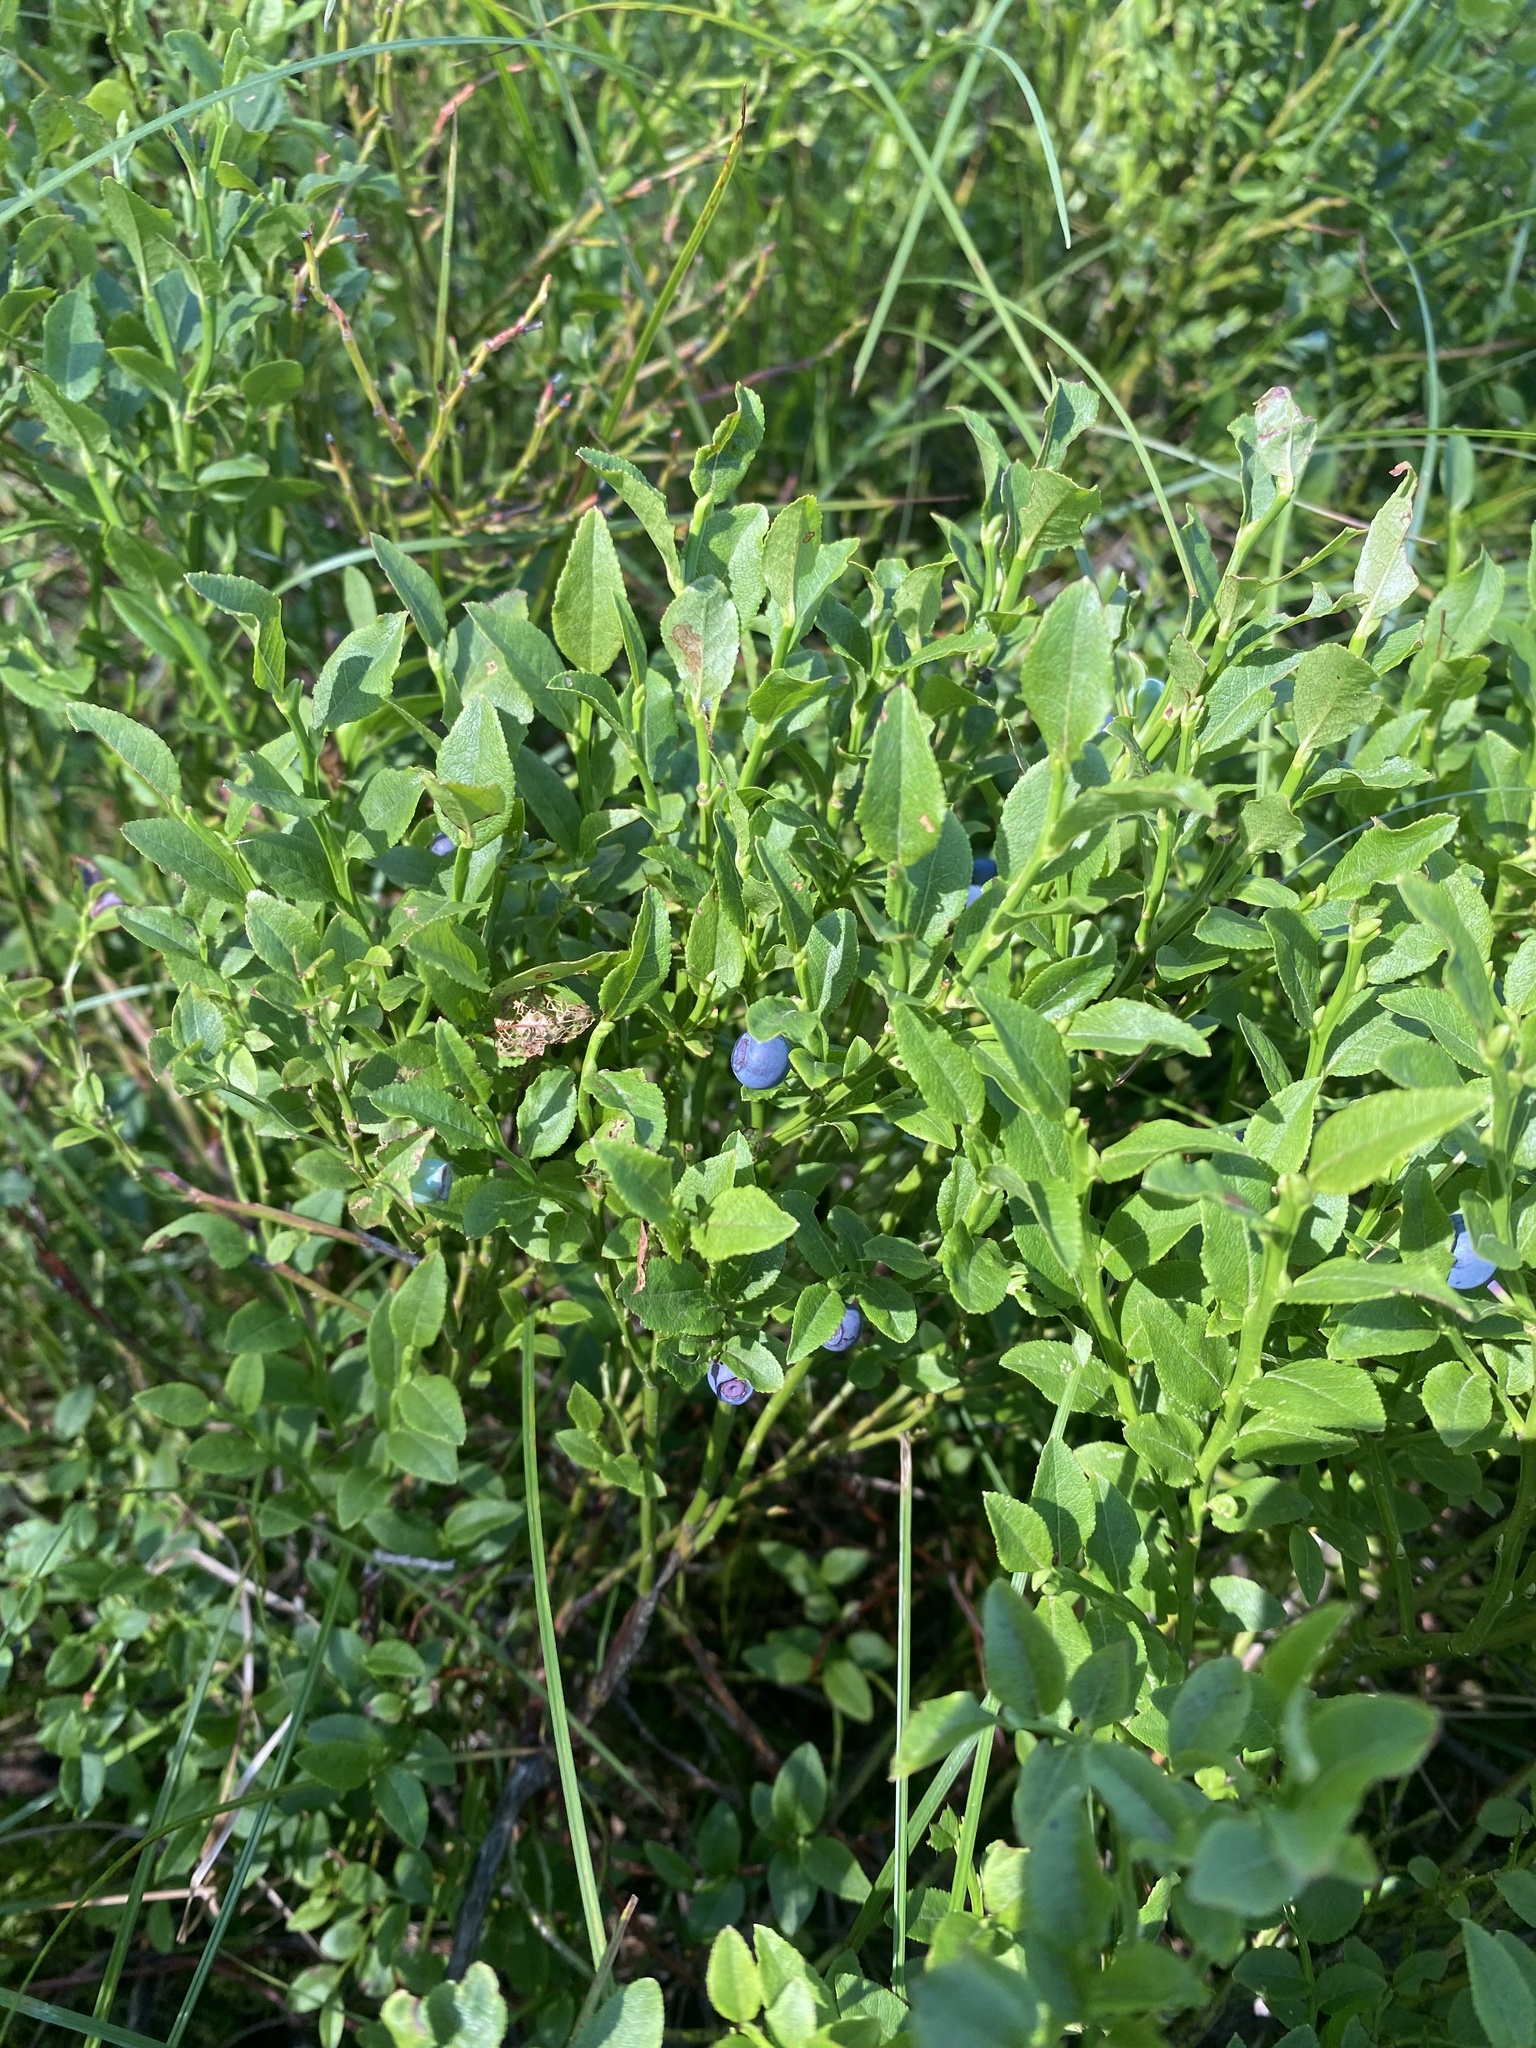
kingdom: Plantae
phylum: Tracheophyta
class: Magnoliopsida
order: Ericales
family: Ericaceae
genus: Vaccinium
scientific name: Vaccinium myrtillus
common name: Bilberry
